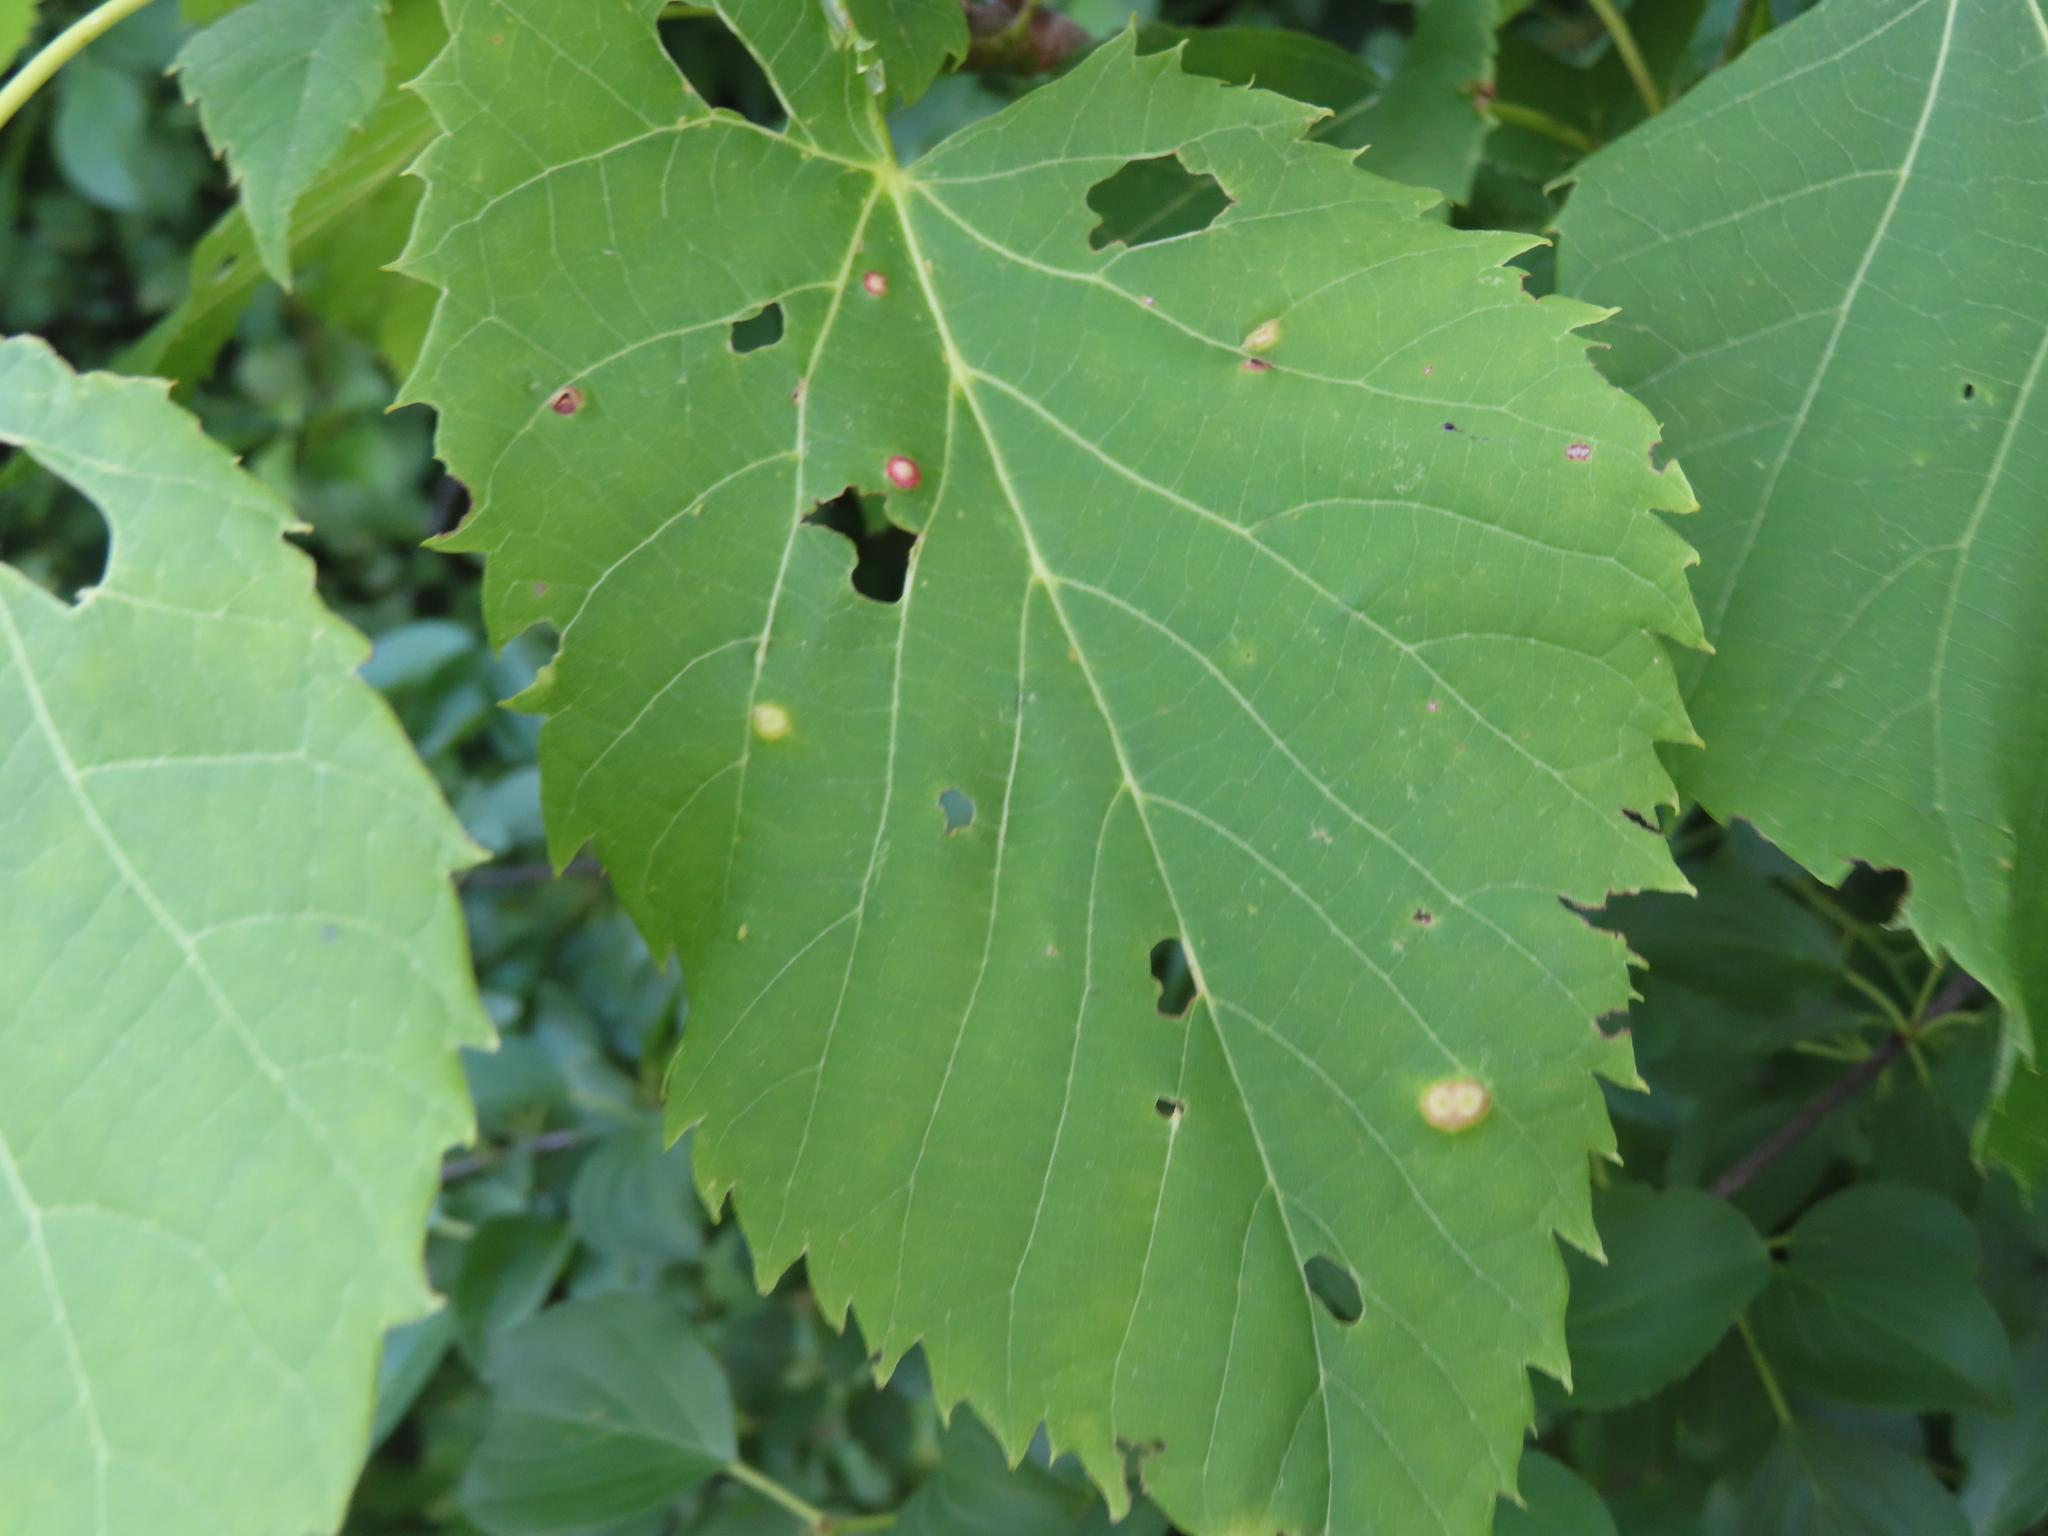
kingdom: Animalia
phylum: Arthropoda
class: Insecta
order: Diptera
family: Cecidomyiidae
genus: Contarinia
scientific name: Contarinia verrucicola
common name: Linden wart gall midge
